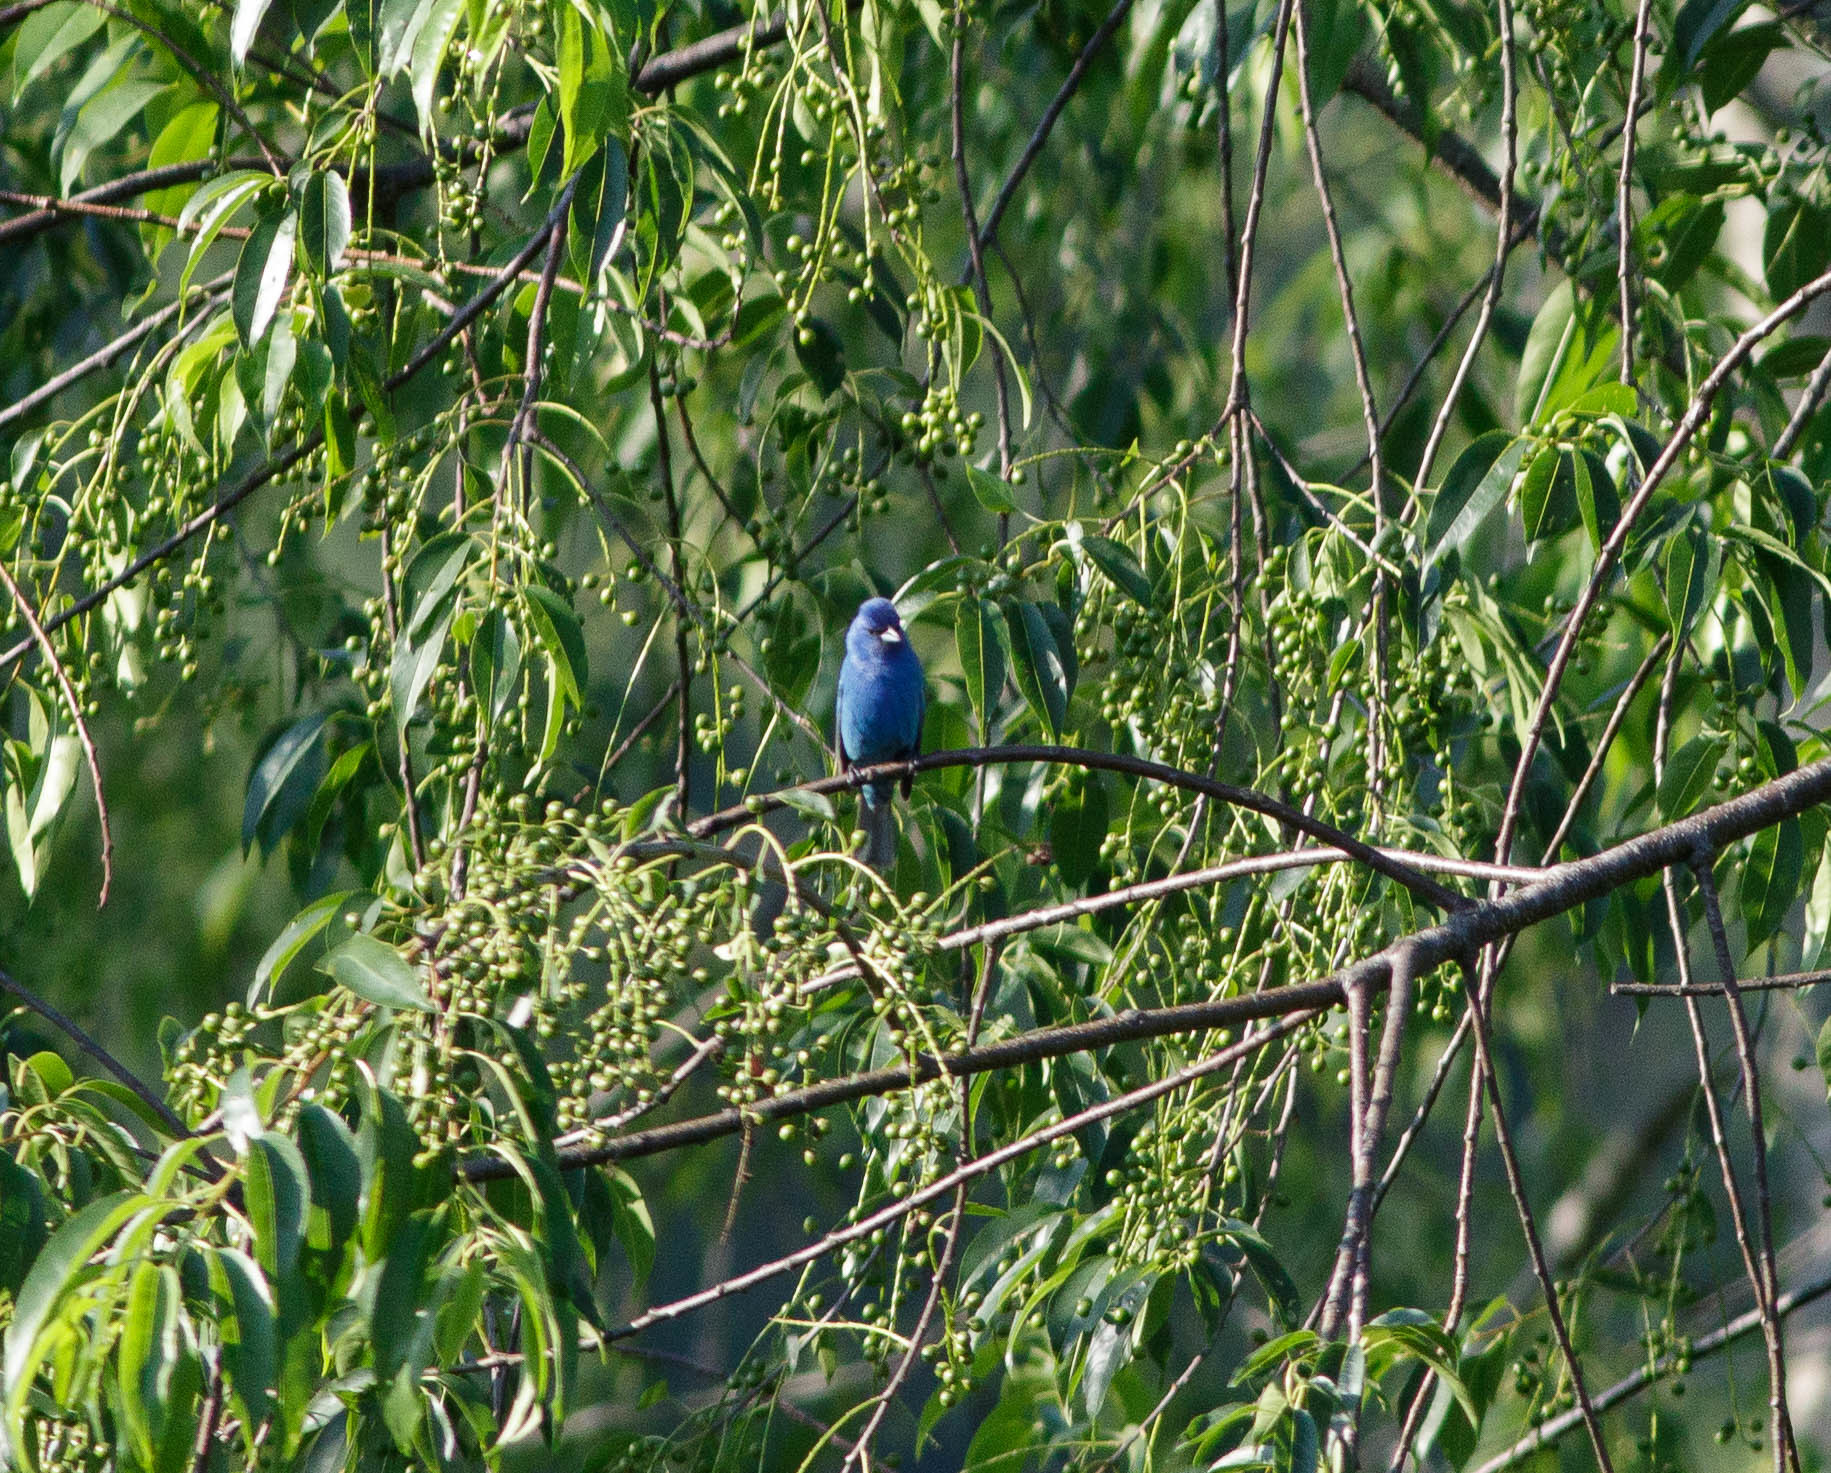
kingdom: Animalia
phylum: Chordata
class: Aves
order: Passeriformes
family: Cardinalidae
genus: Passerina
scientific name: Passerina cyanea
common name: Indigo bunting
